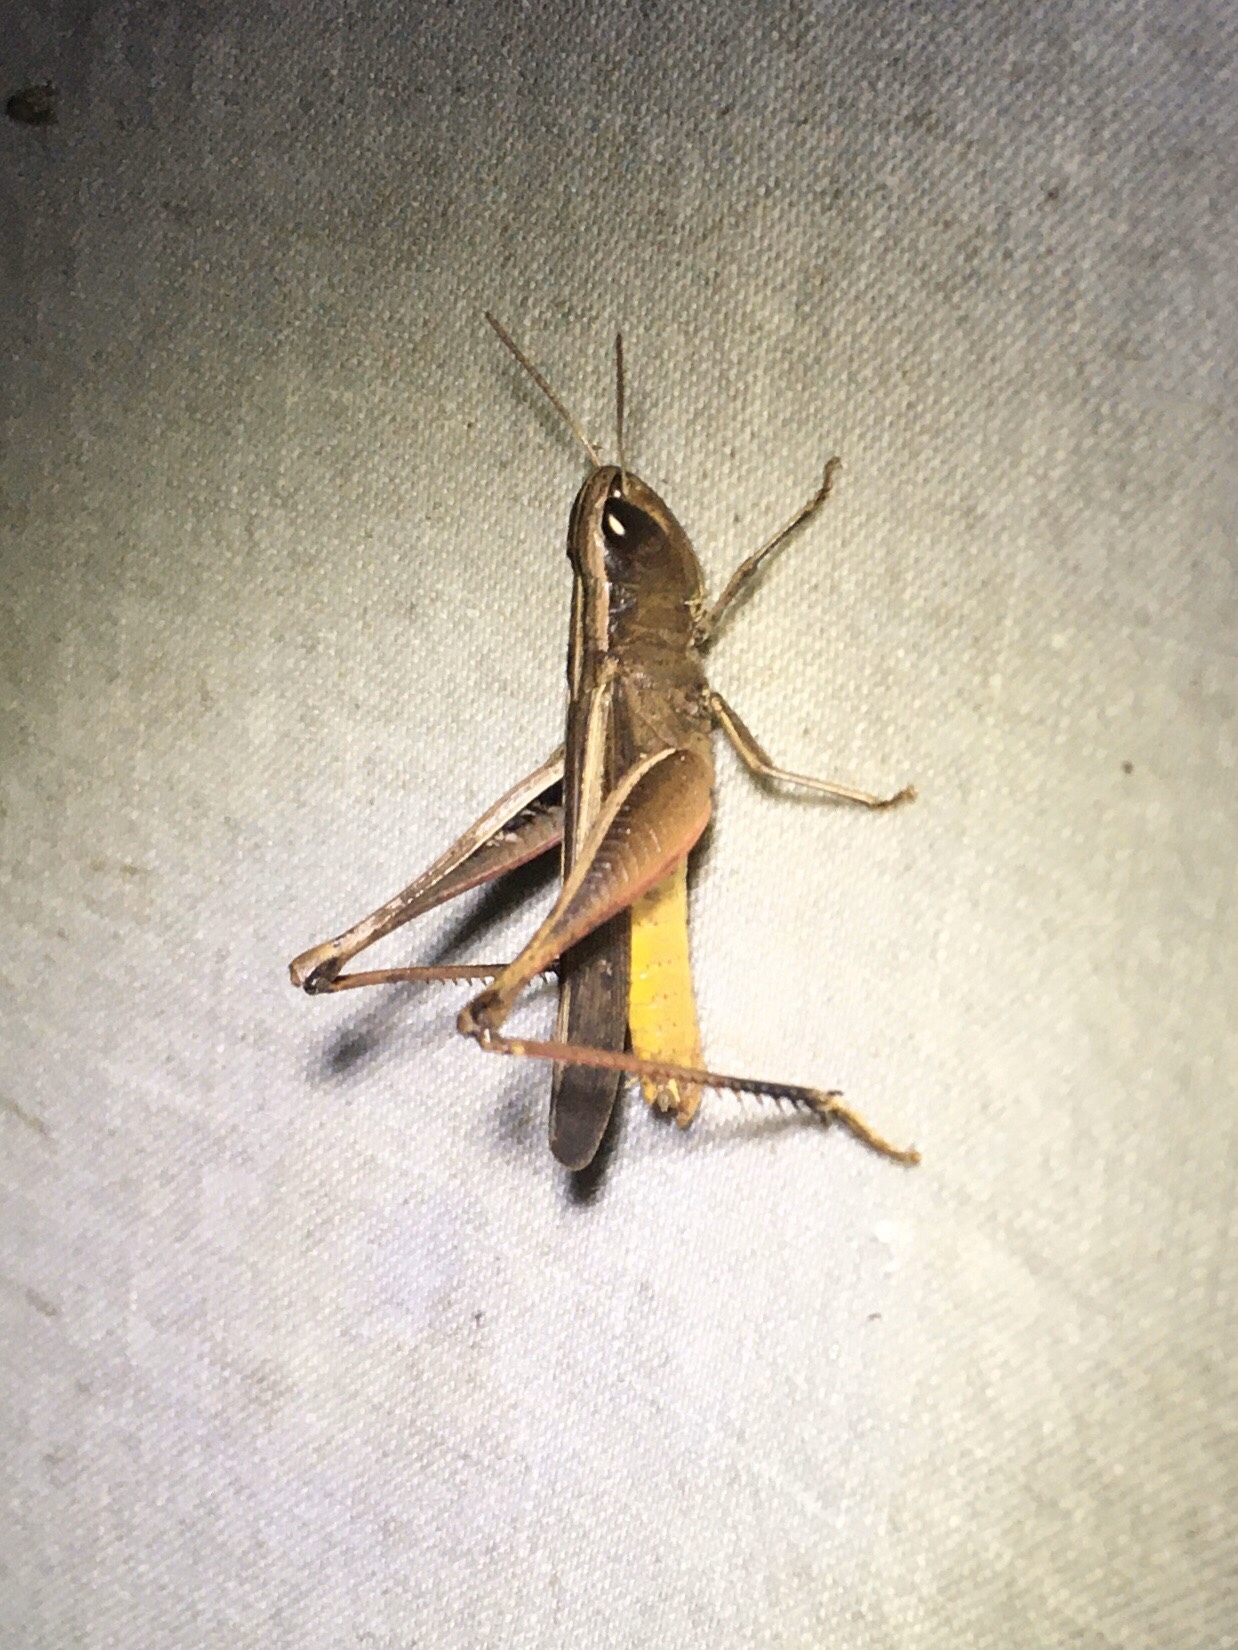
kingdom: Animalia
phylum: Arthropoda
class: Insecta
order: Orthoptera
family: Acrididae
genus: Amblytropidia
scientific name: Amblytropidia mysteca
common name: Brown winter grasshopper
